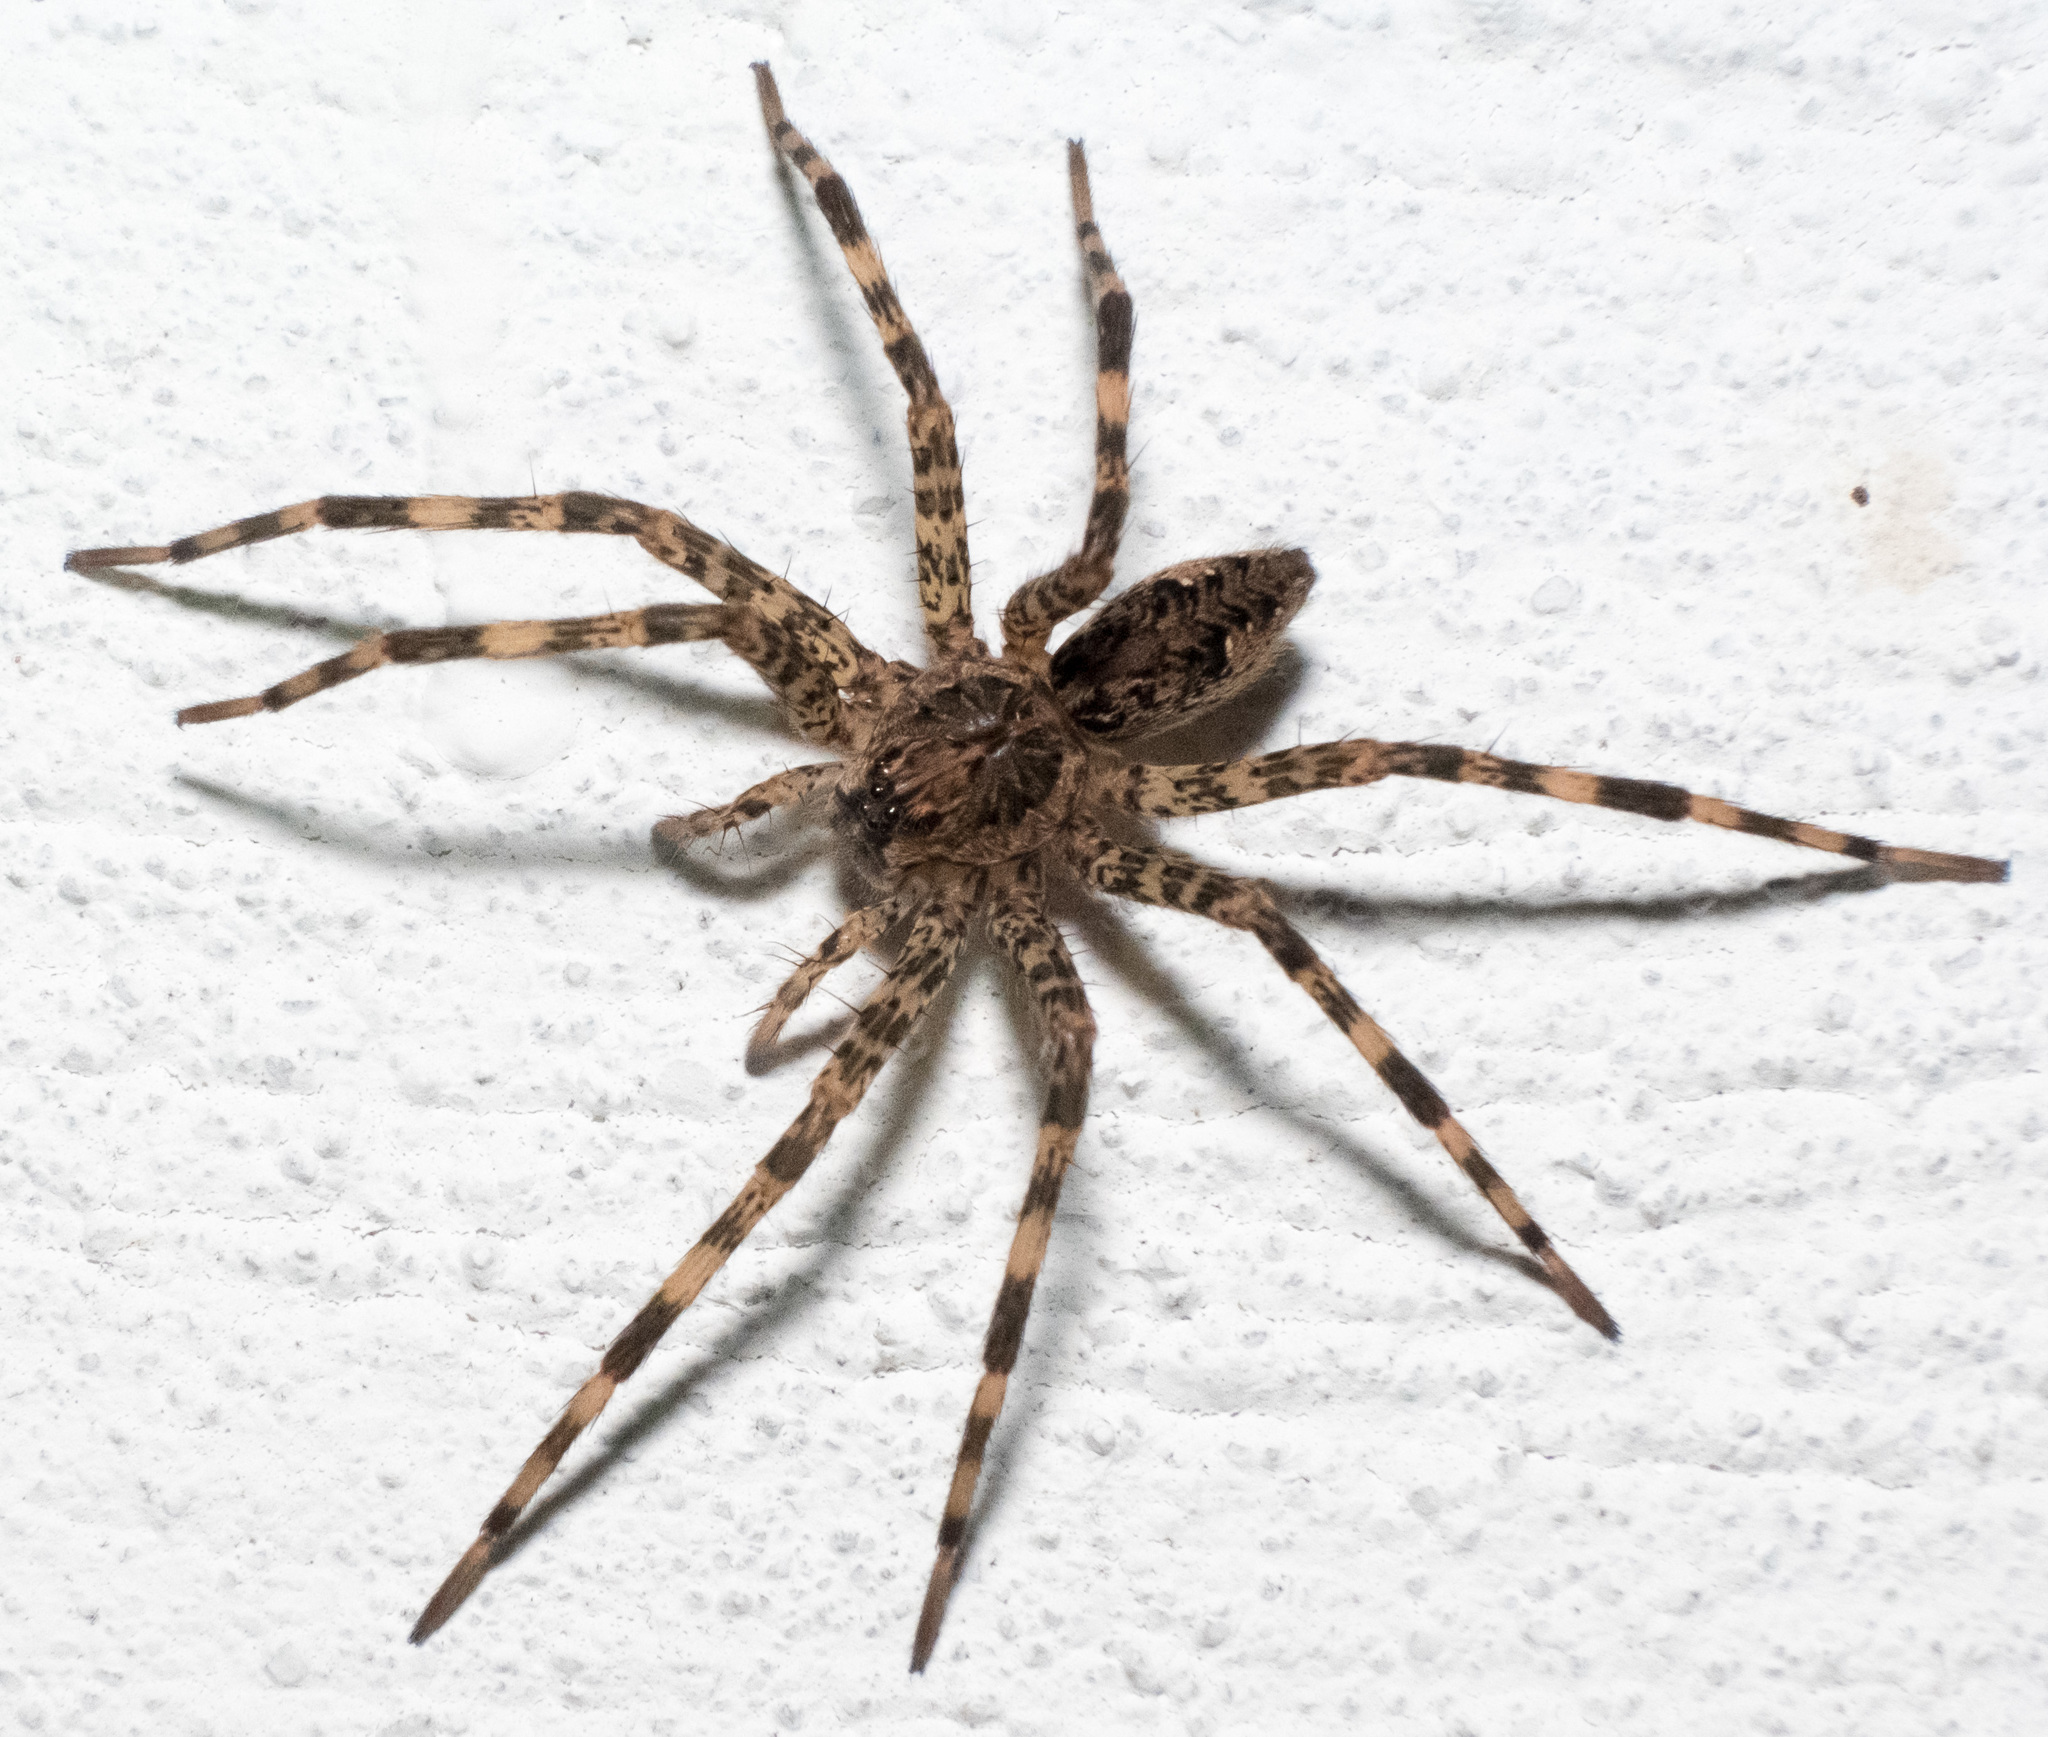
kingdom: Animalia
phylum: Arthropoda
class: Arachnida
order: Araneae
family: Pisauridae
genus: Dolomedes
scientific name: Dolomedes tenebrosus
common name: Dark fishing spider
